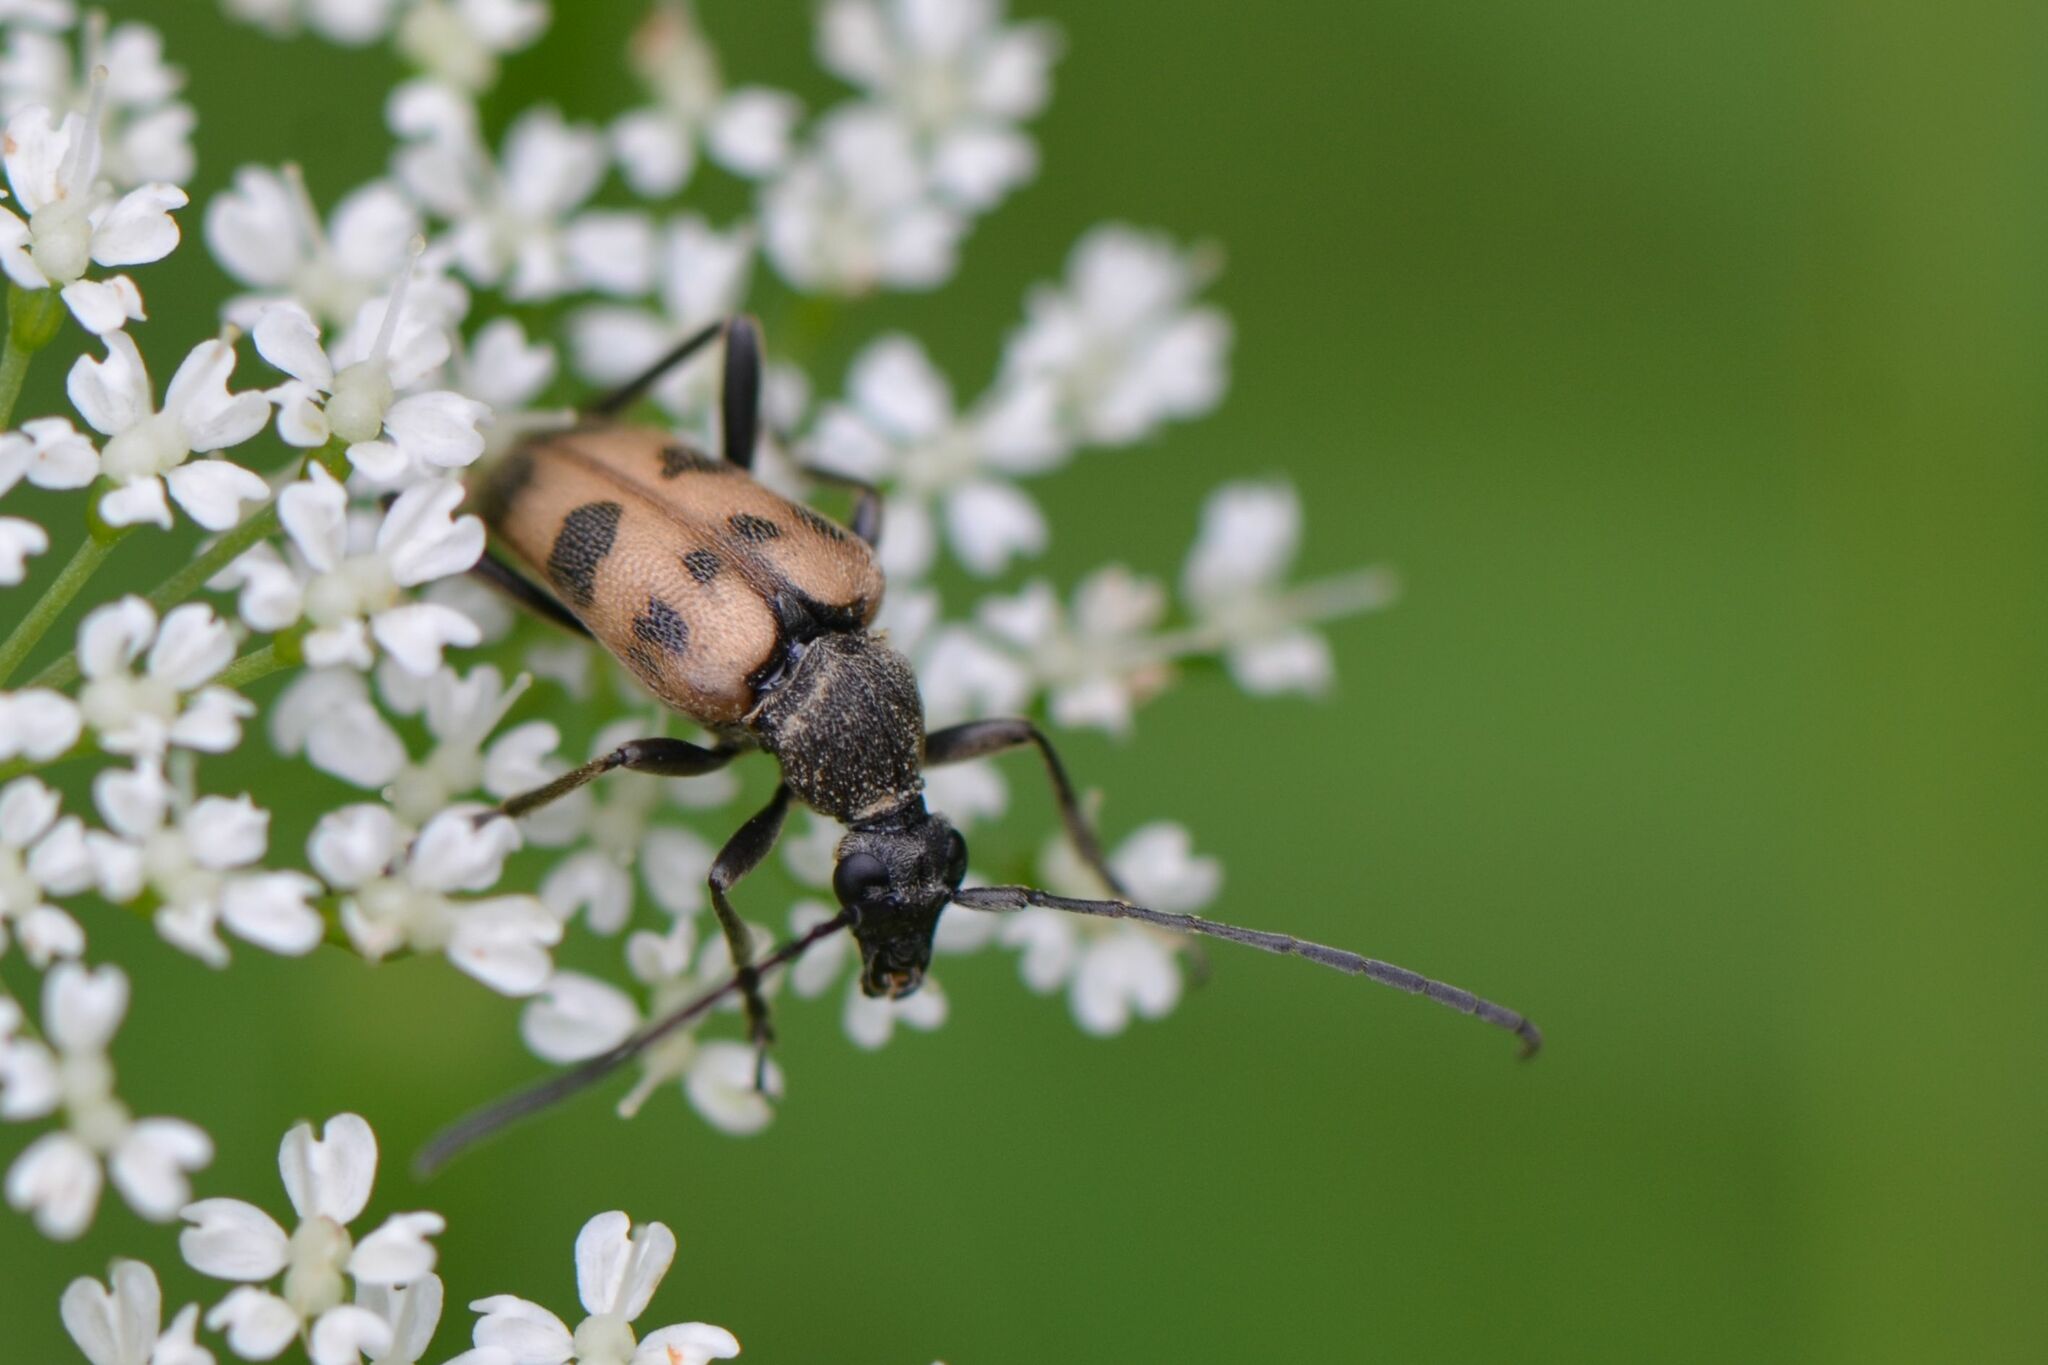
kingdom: Animalia
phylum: Arthropoda
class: Insecta
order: Coleoptera
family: Cerambycidae
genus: Pachytodes
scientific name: Pachytodes cerambyciformis
